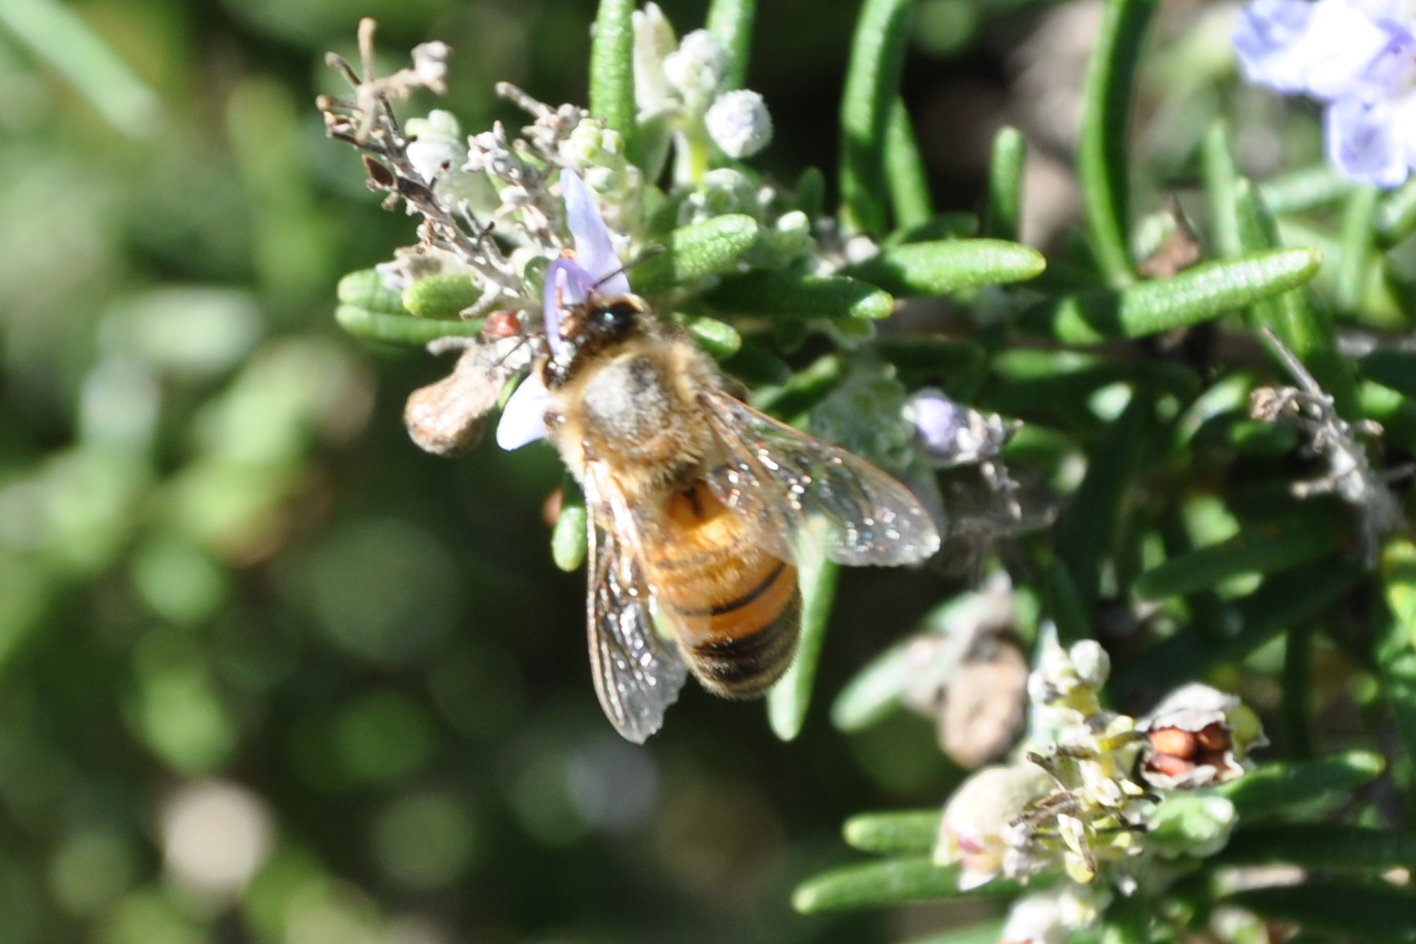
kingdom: Animalia
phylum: Arthropoda
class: Insecta
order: Hymenoptera
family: Apidae
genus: Apis
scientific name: Apis mellifera
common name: Honey bee
